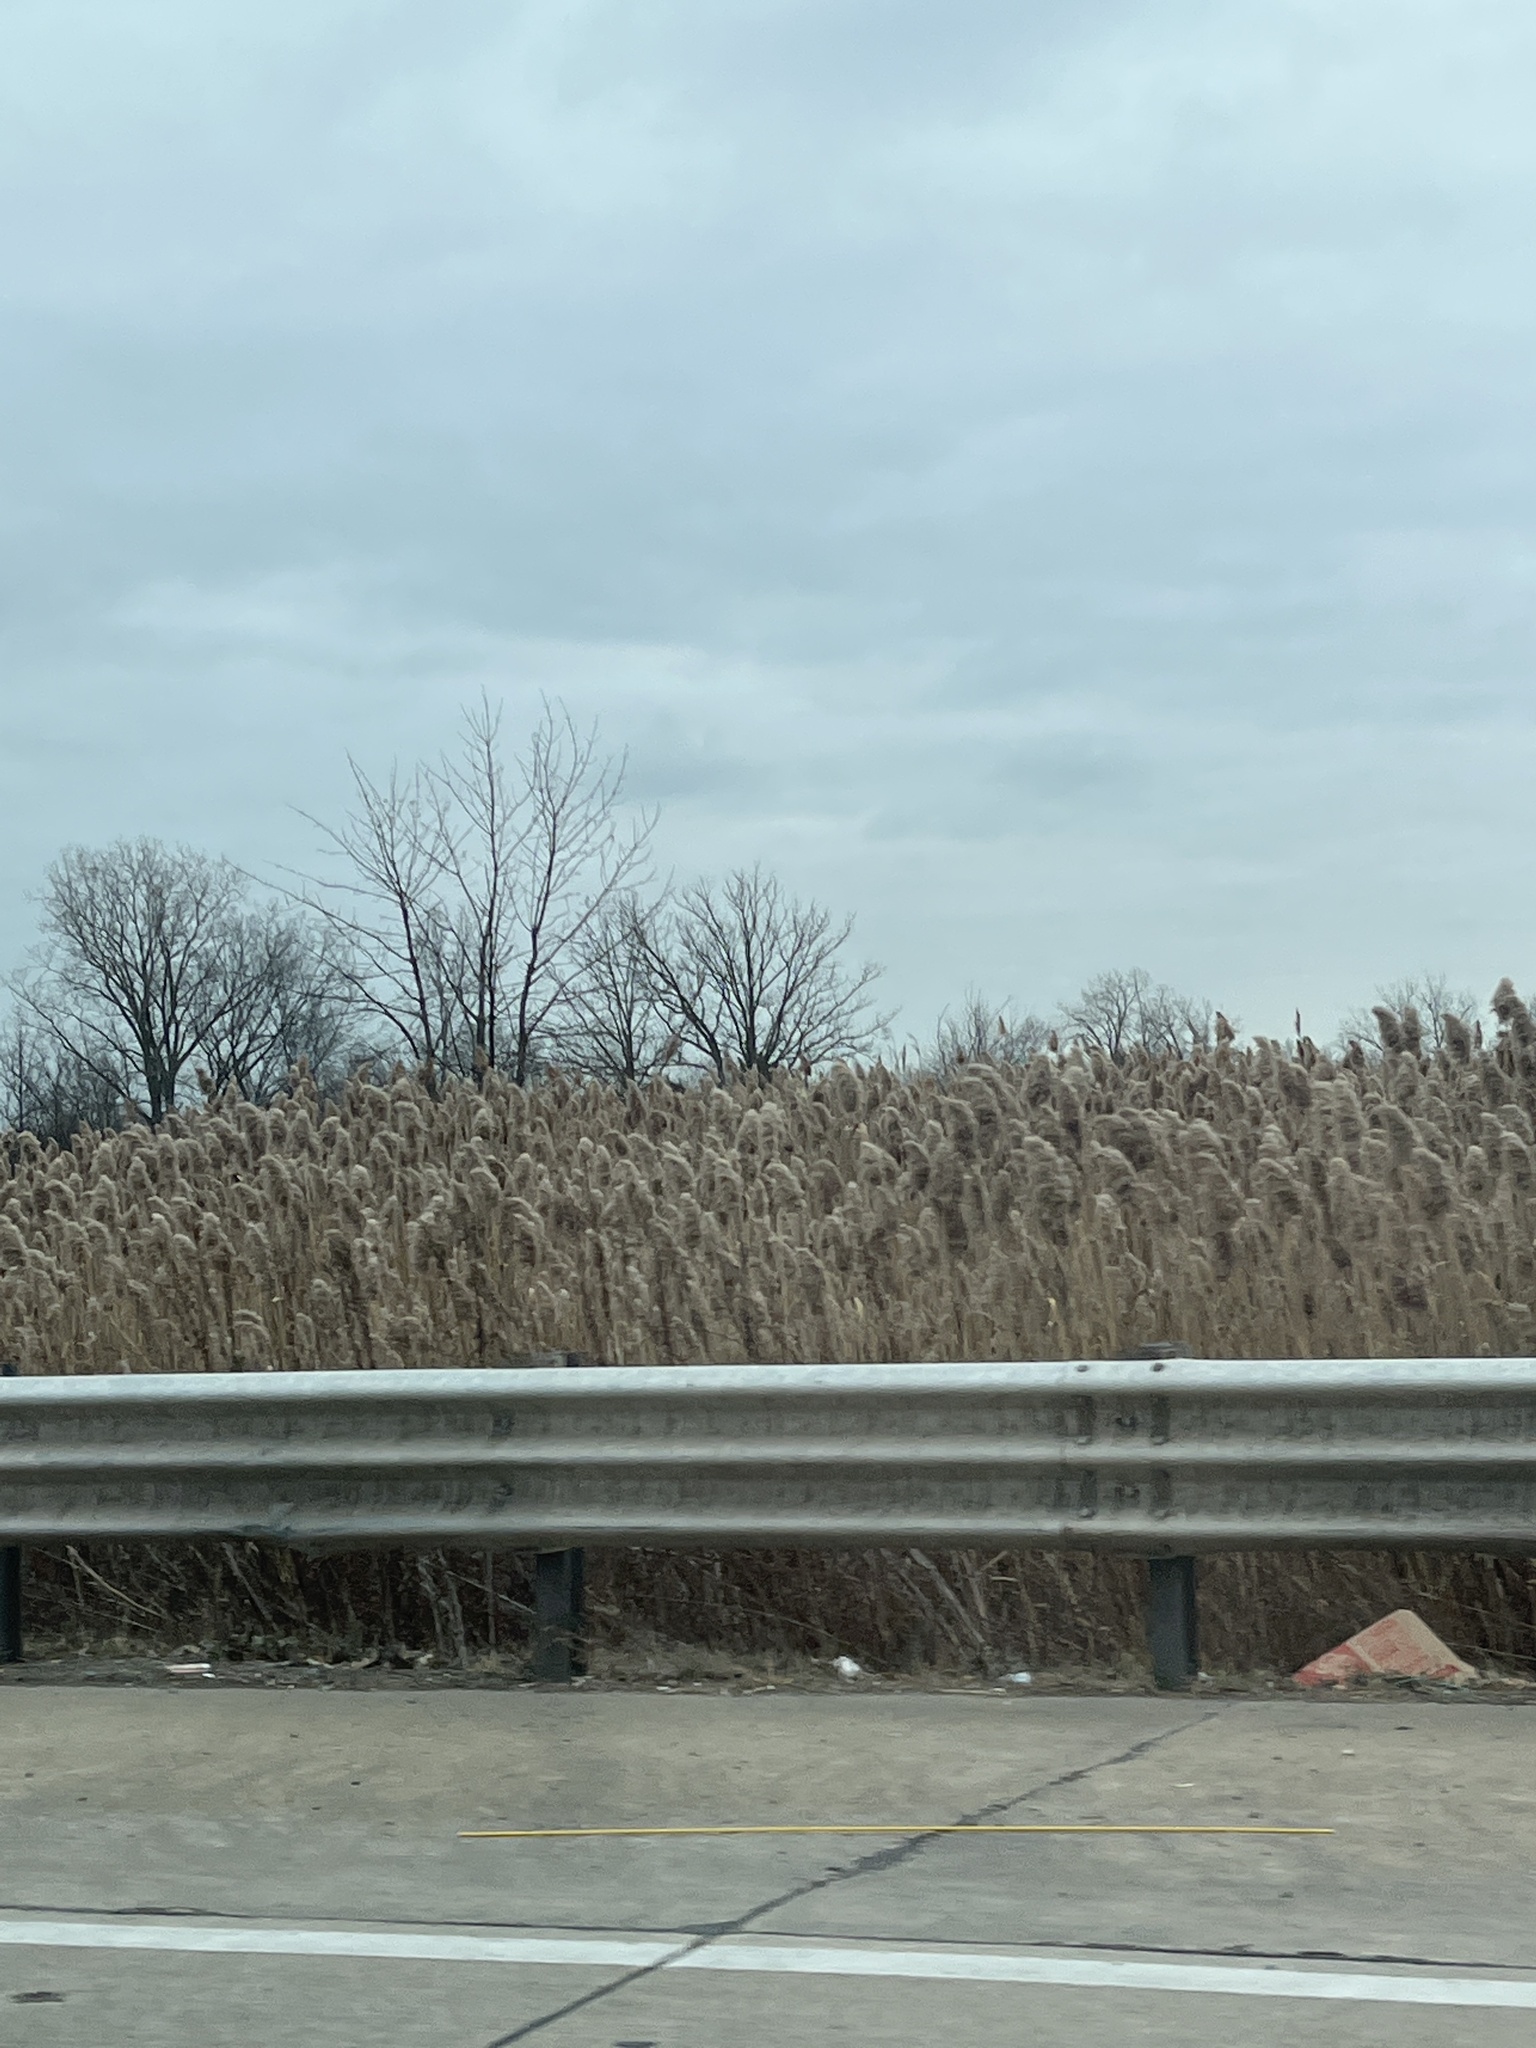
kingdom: Plantae
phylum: Tracheophyta
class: Liliopsida
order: Poales
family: Poaceae
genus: Phragmites
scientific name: Phragmites australis
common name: Common reed
